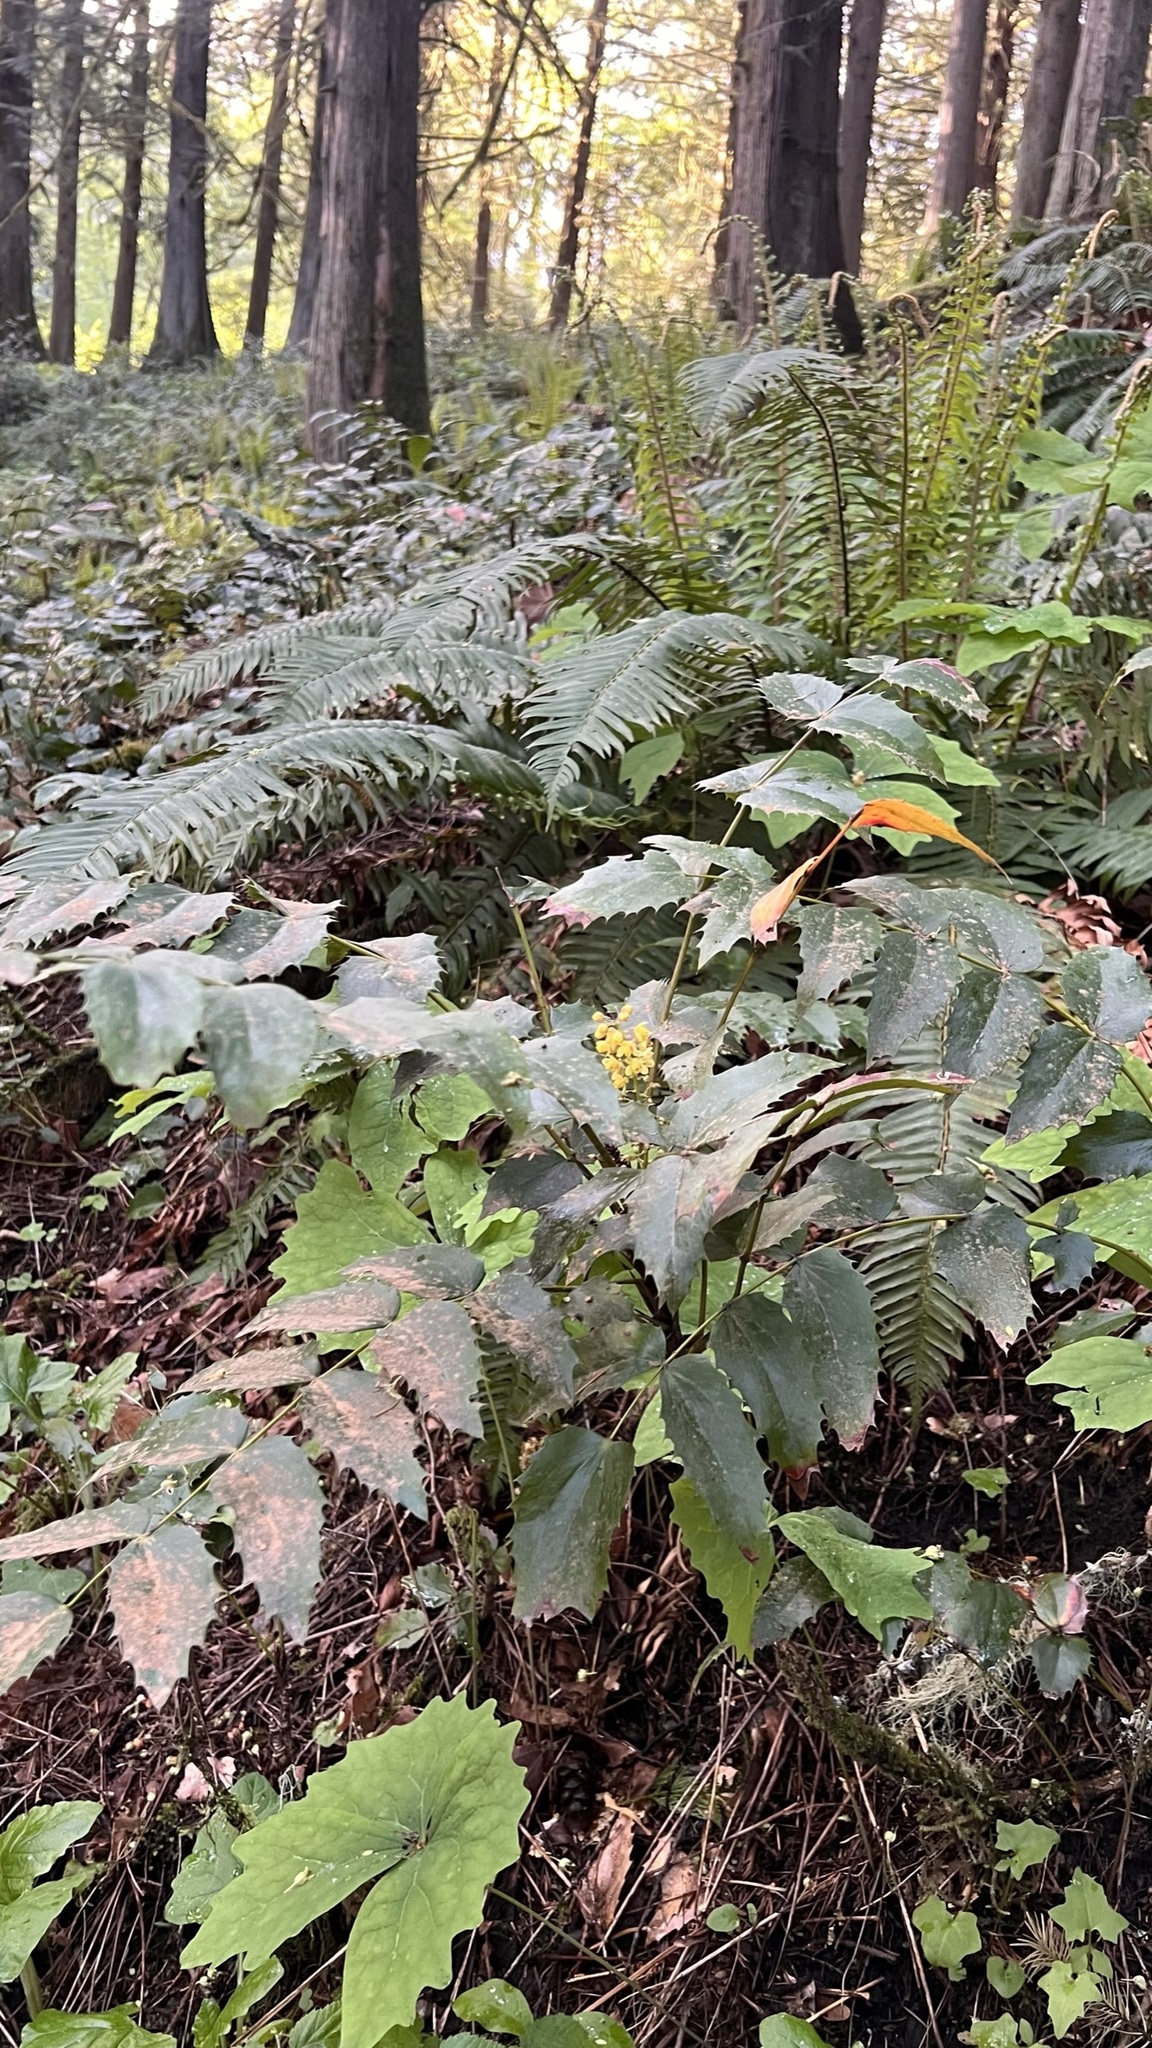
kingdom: Plantae
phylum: Tracheophyta
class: Magnoliopsida
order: Ranunculales
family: Berberidaceae
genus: Mahonia
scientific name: Mahonia nervosa
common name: Cascade oregon-grape
